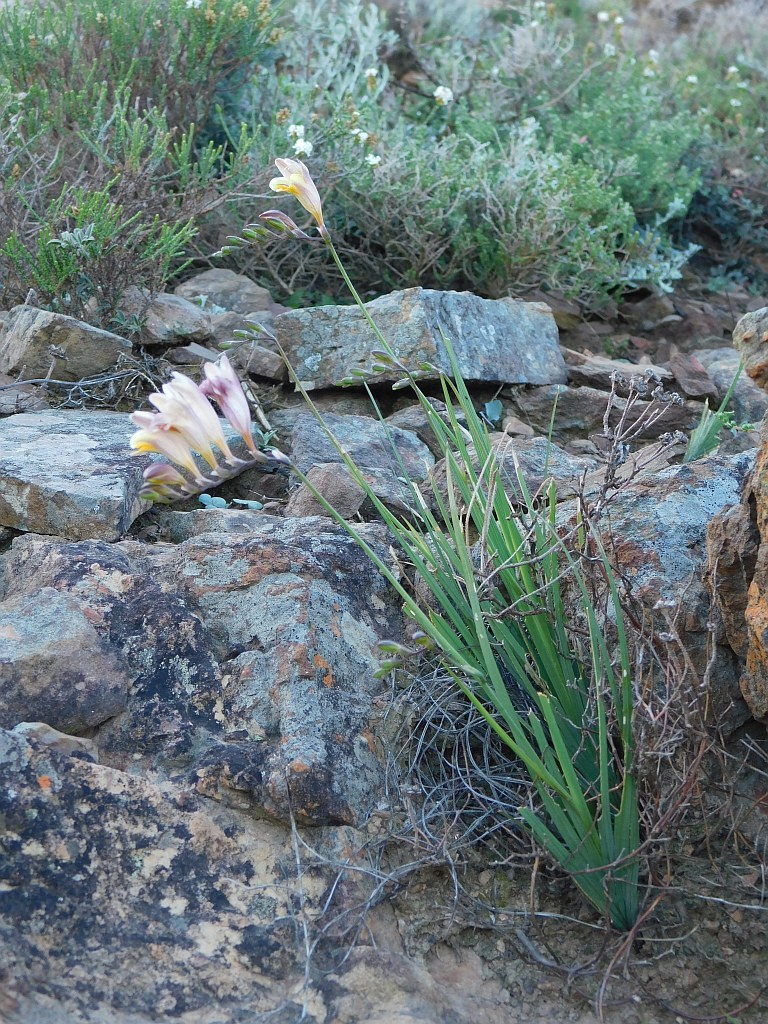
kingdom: Plantae
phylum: Tracheophyta
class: Liliopsida
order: Asparagales
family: Iridaceae
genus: Freesia
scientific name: Freesia refracta
